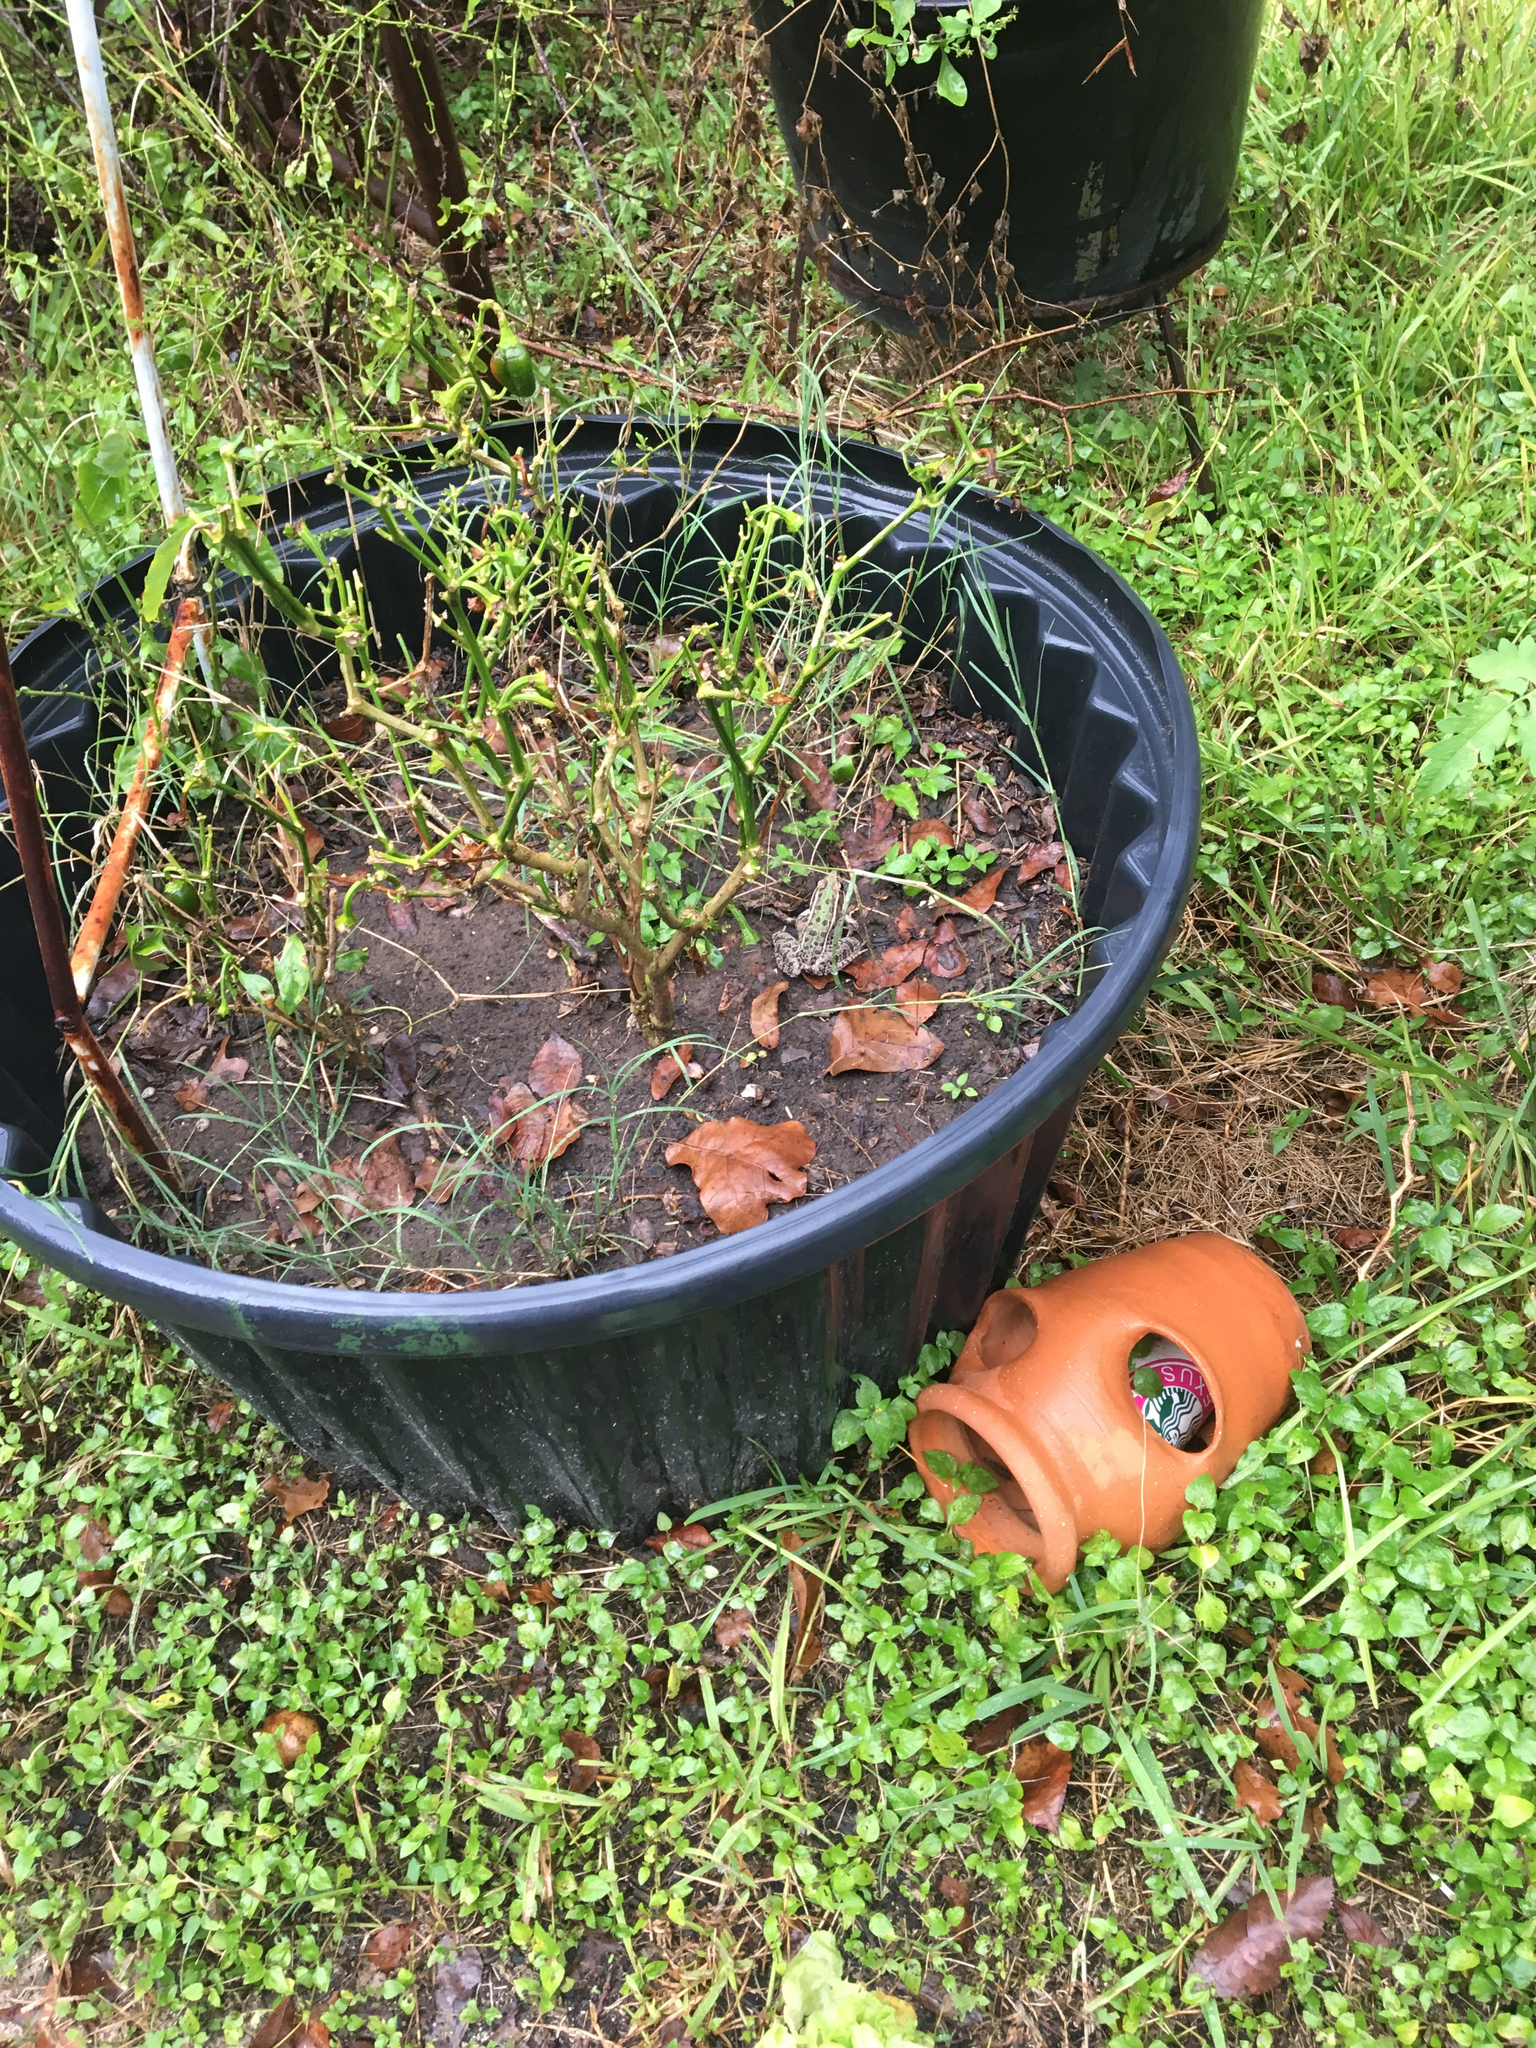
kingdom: Animalia
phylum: Chordata
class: Amphibia
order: Anura
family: Ranidae
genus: Lithobates
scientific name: Lithobates sphenocephalus
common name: Southern leopard frog
